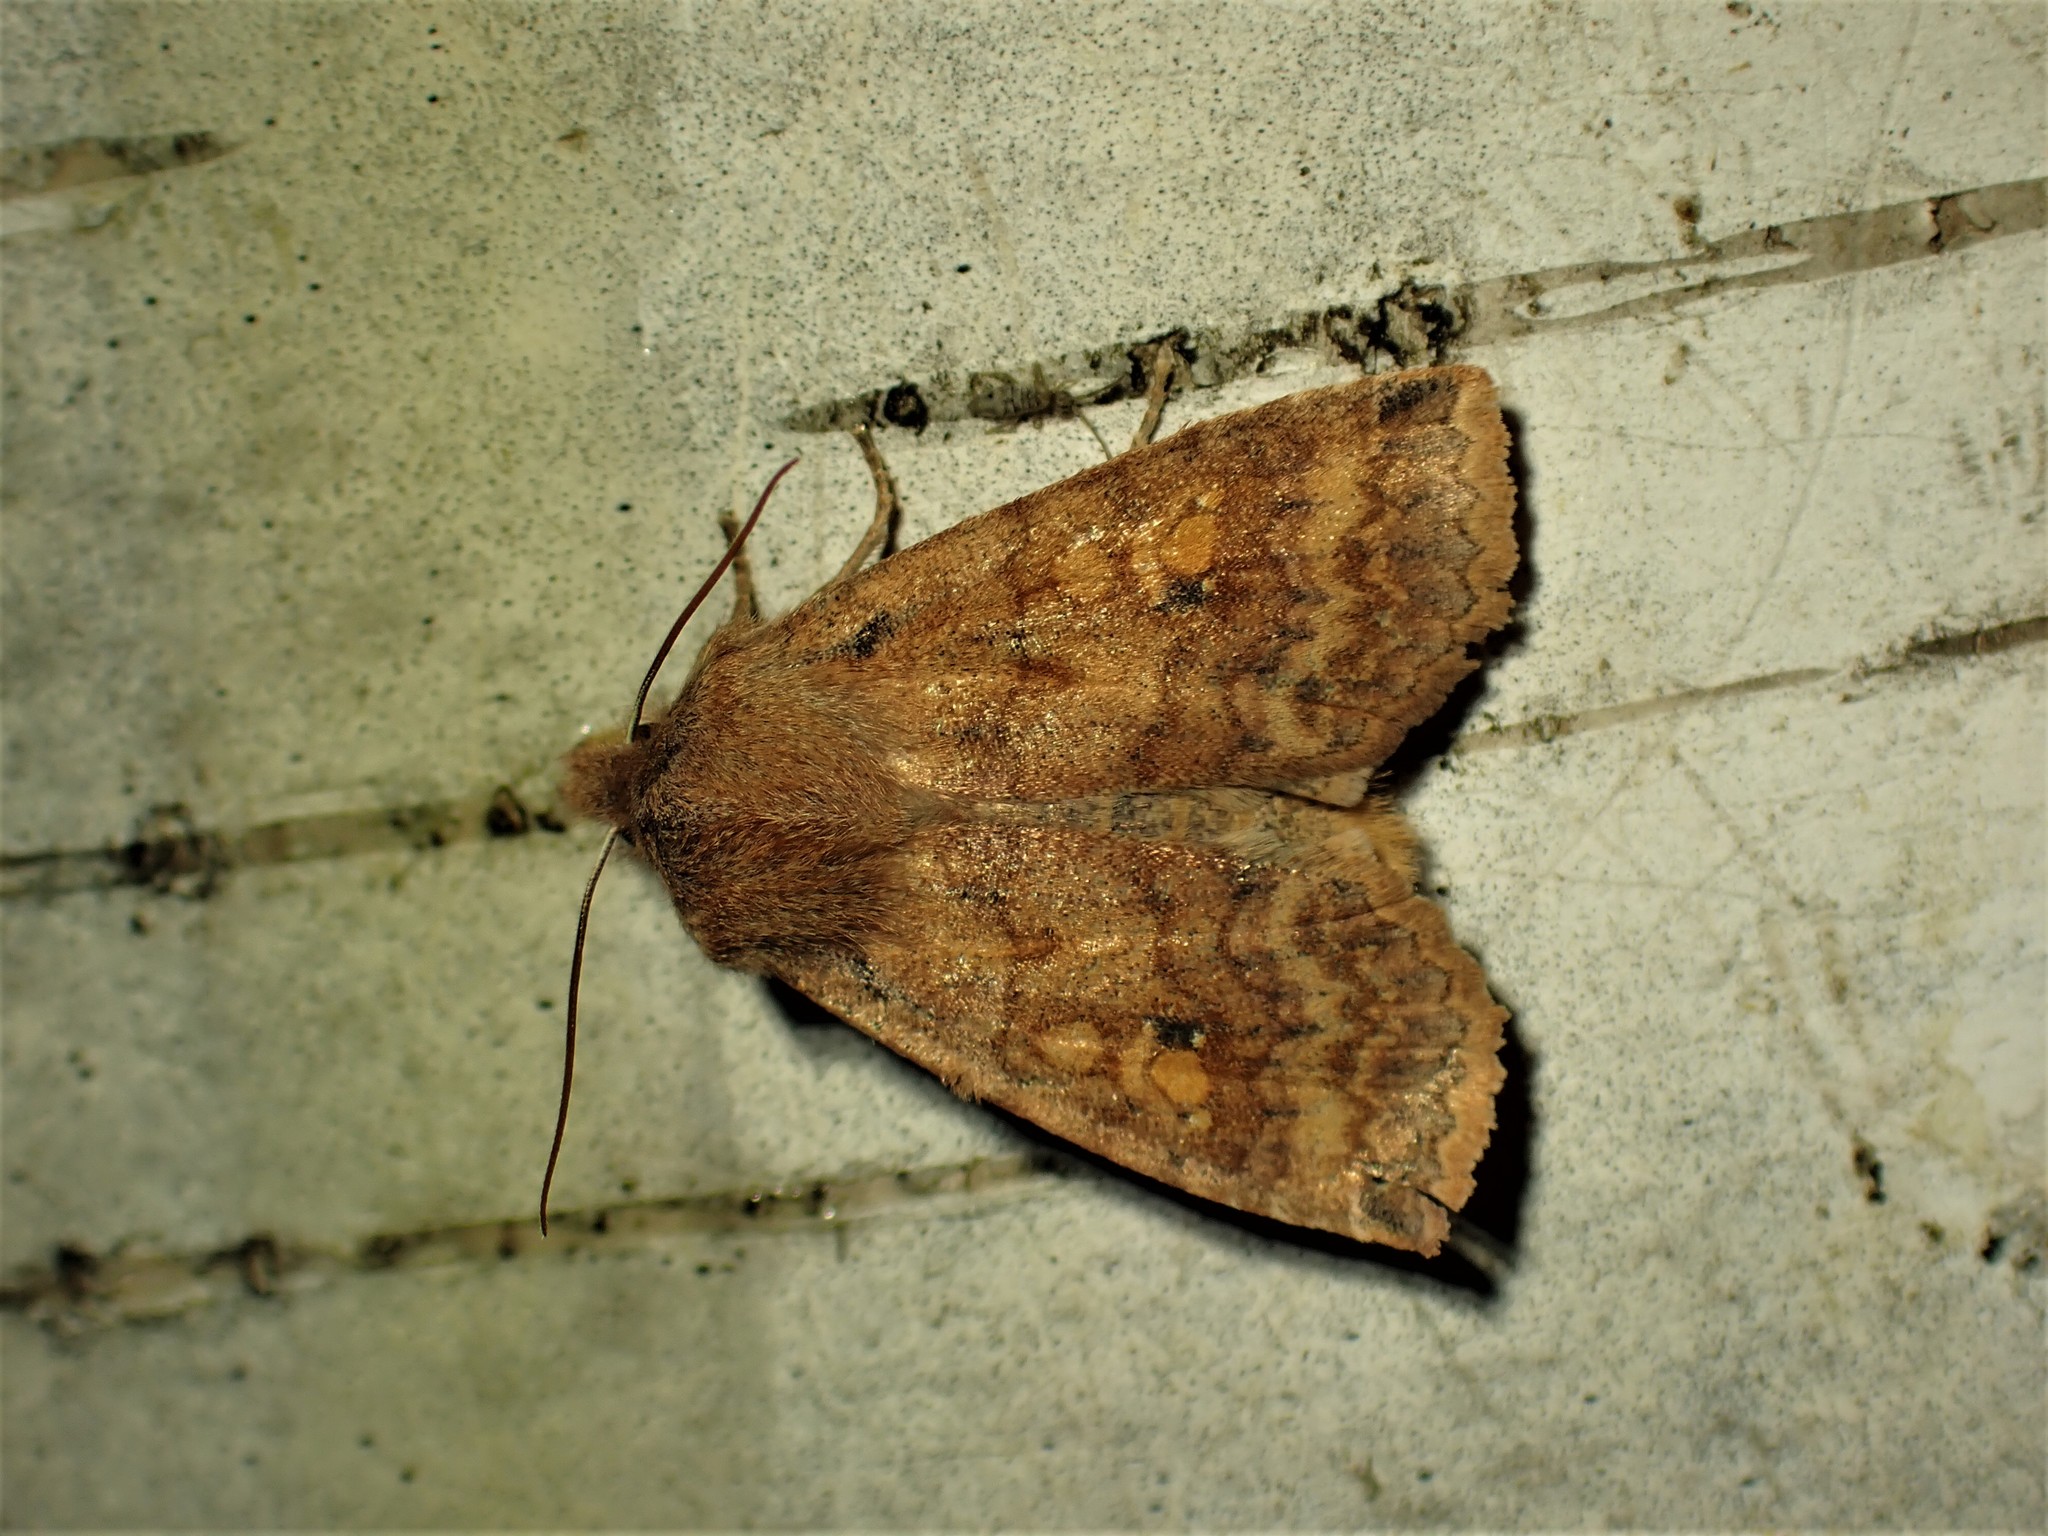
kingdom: Animalia
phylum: Arthropoda
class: Insecta
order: Lepidoptera
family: Noctuidae
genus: Eupsilia
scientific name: Eupsilia tristigmata
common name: Three-spotted sallow
